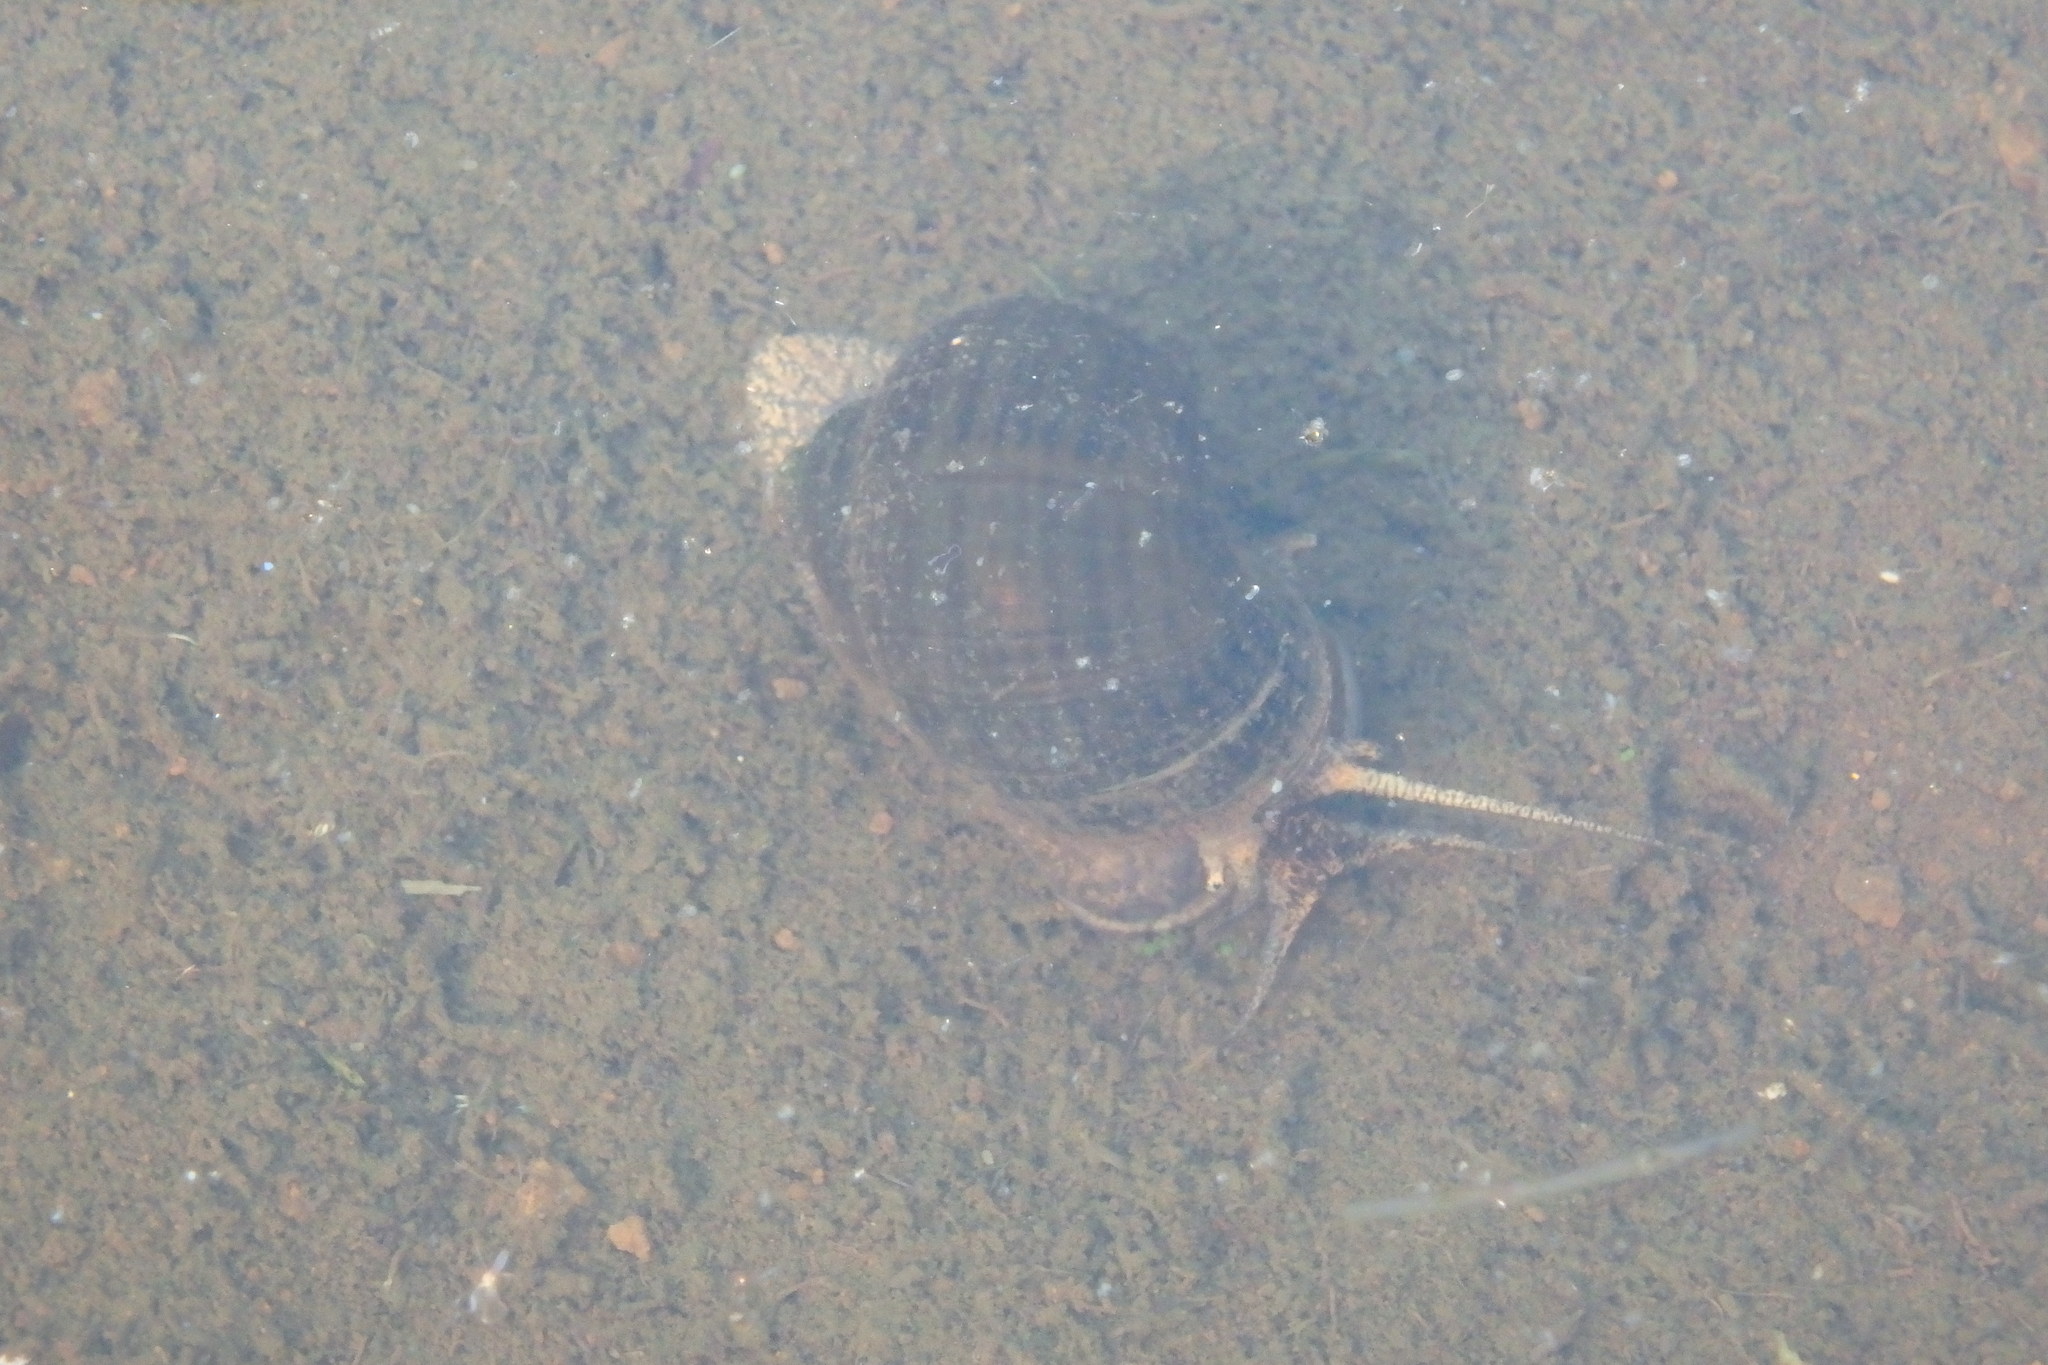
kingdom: Animalia
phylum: Mollusca
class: Gastropoda
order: Architaenioglossa
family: Ampullariidae
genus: Pomacea
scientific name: Pomacea canaliculata
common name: Channeled applesnail
